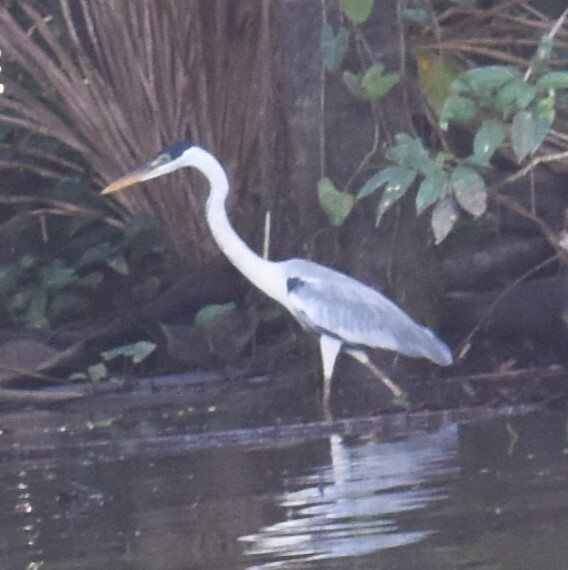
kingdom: Animalia
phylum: Chordata
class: Aves
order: Pelecaniformes
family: Ardeidae
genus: Ardea
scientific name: Ardea cocoi
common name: Cocoi heron
